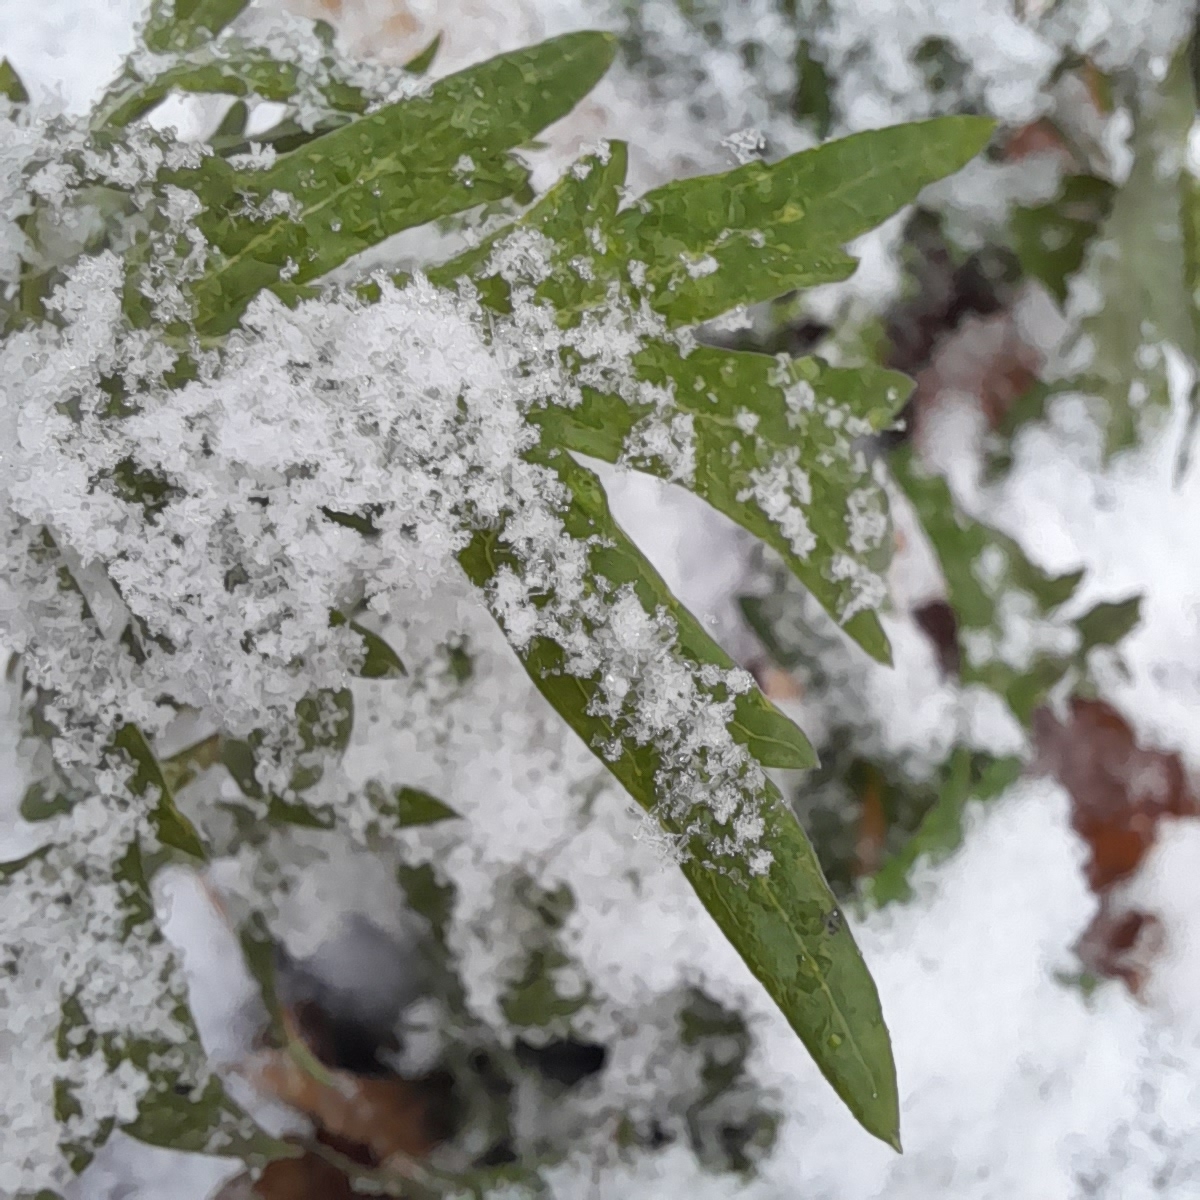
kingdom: Plantae
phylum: Tracheophyta
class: Magnoliopsida
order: Asterales
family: Asteraceae
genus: Artemisia
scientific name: Artemisia vulgaris
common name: Mugwort
